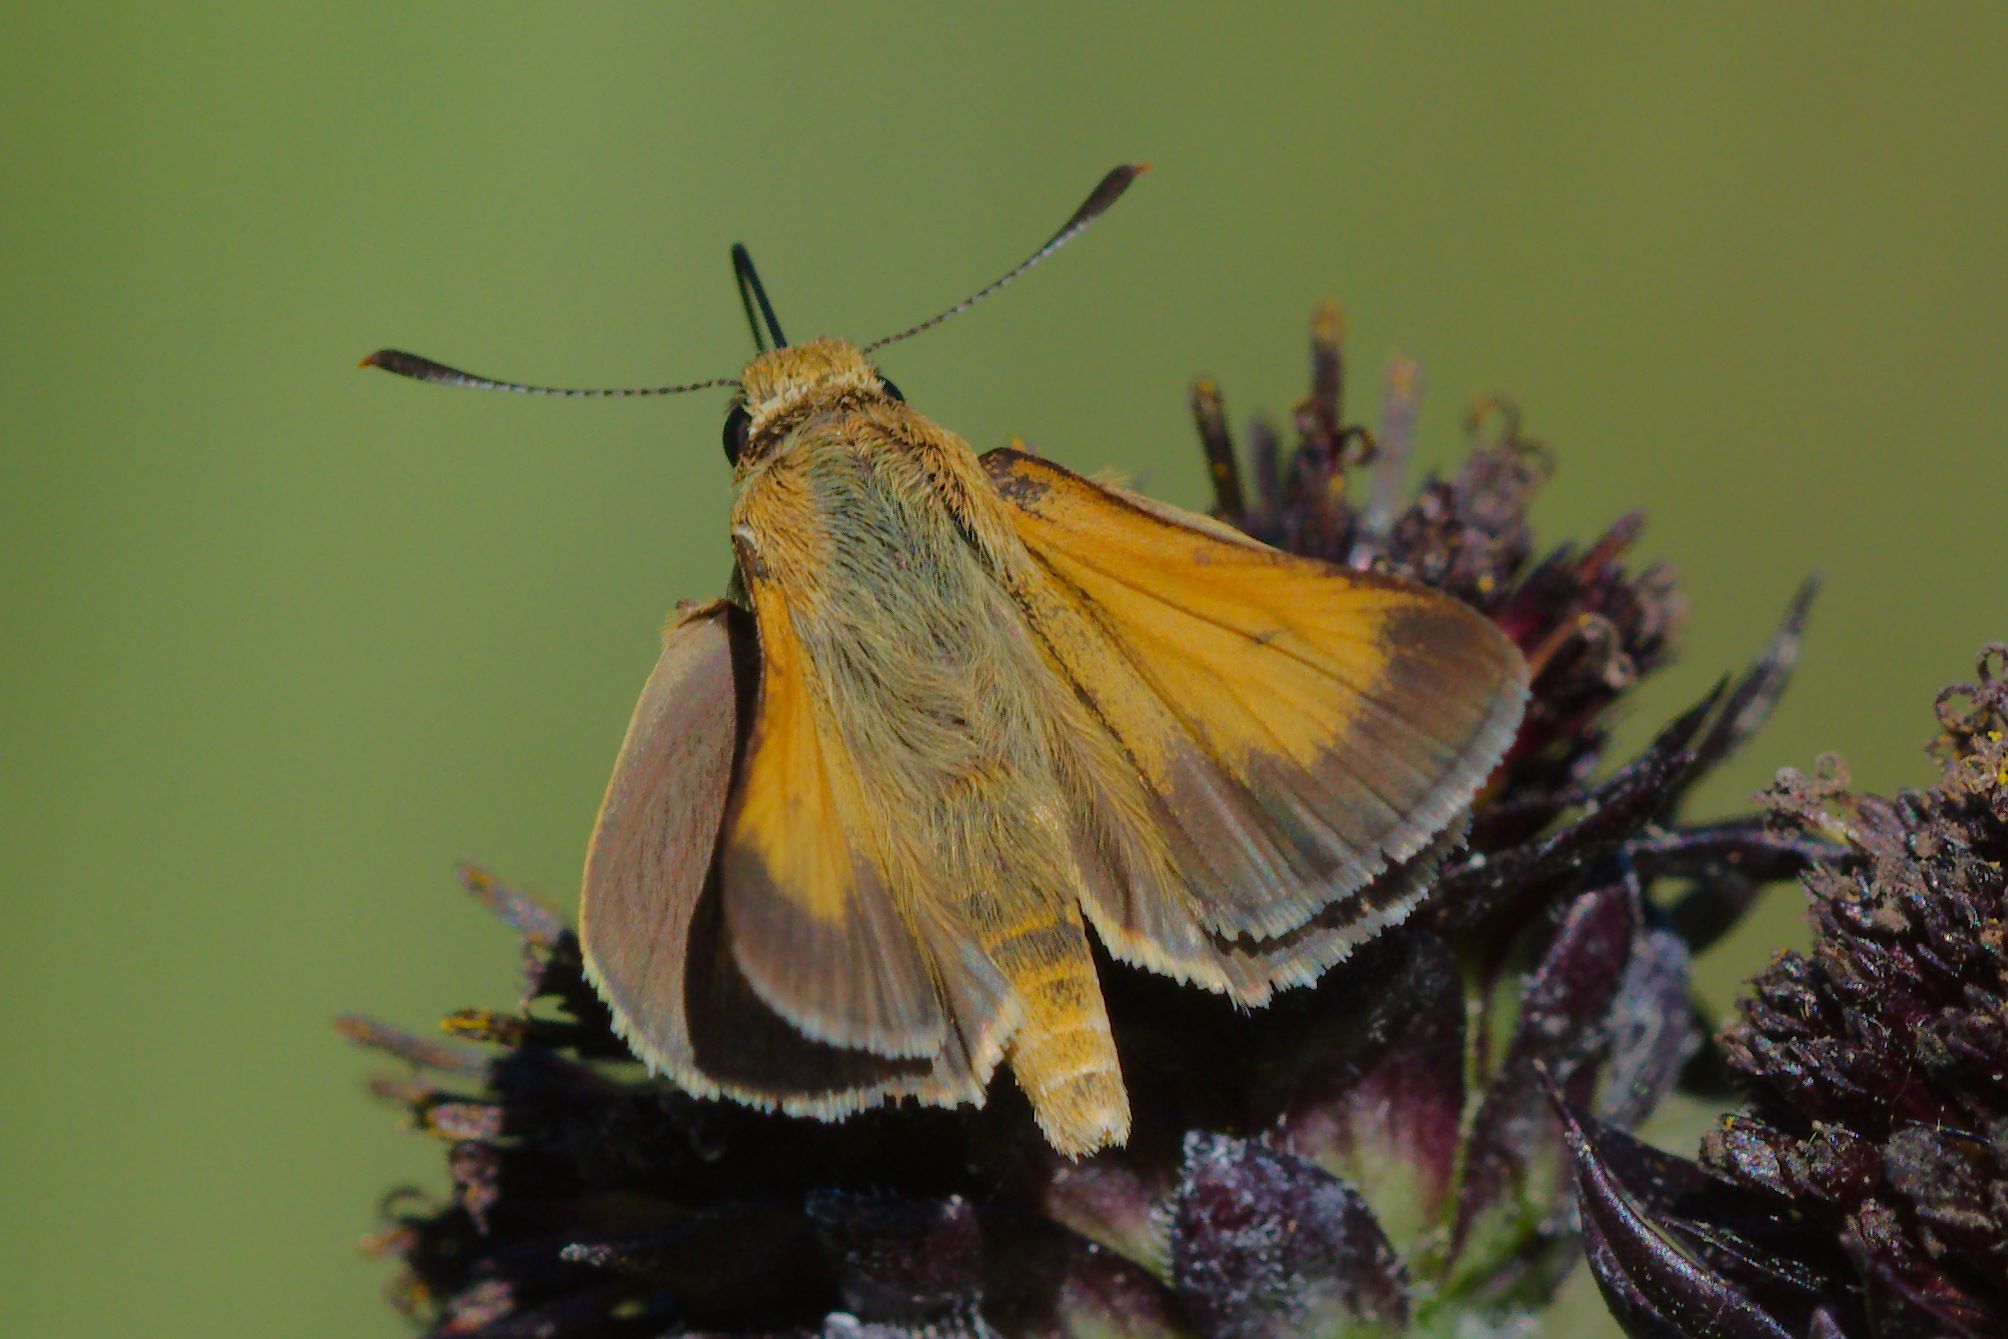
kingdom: Animalia
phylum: Arthropoda
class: Insecta
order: Lepidoptera
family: Hesperiidae
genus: Atrytone
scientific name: Atrytone arogos
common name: Arogos skipper
